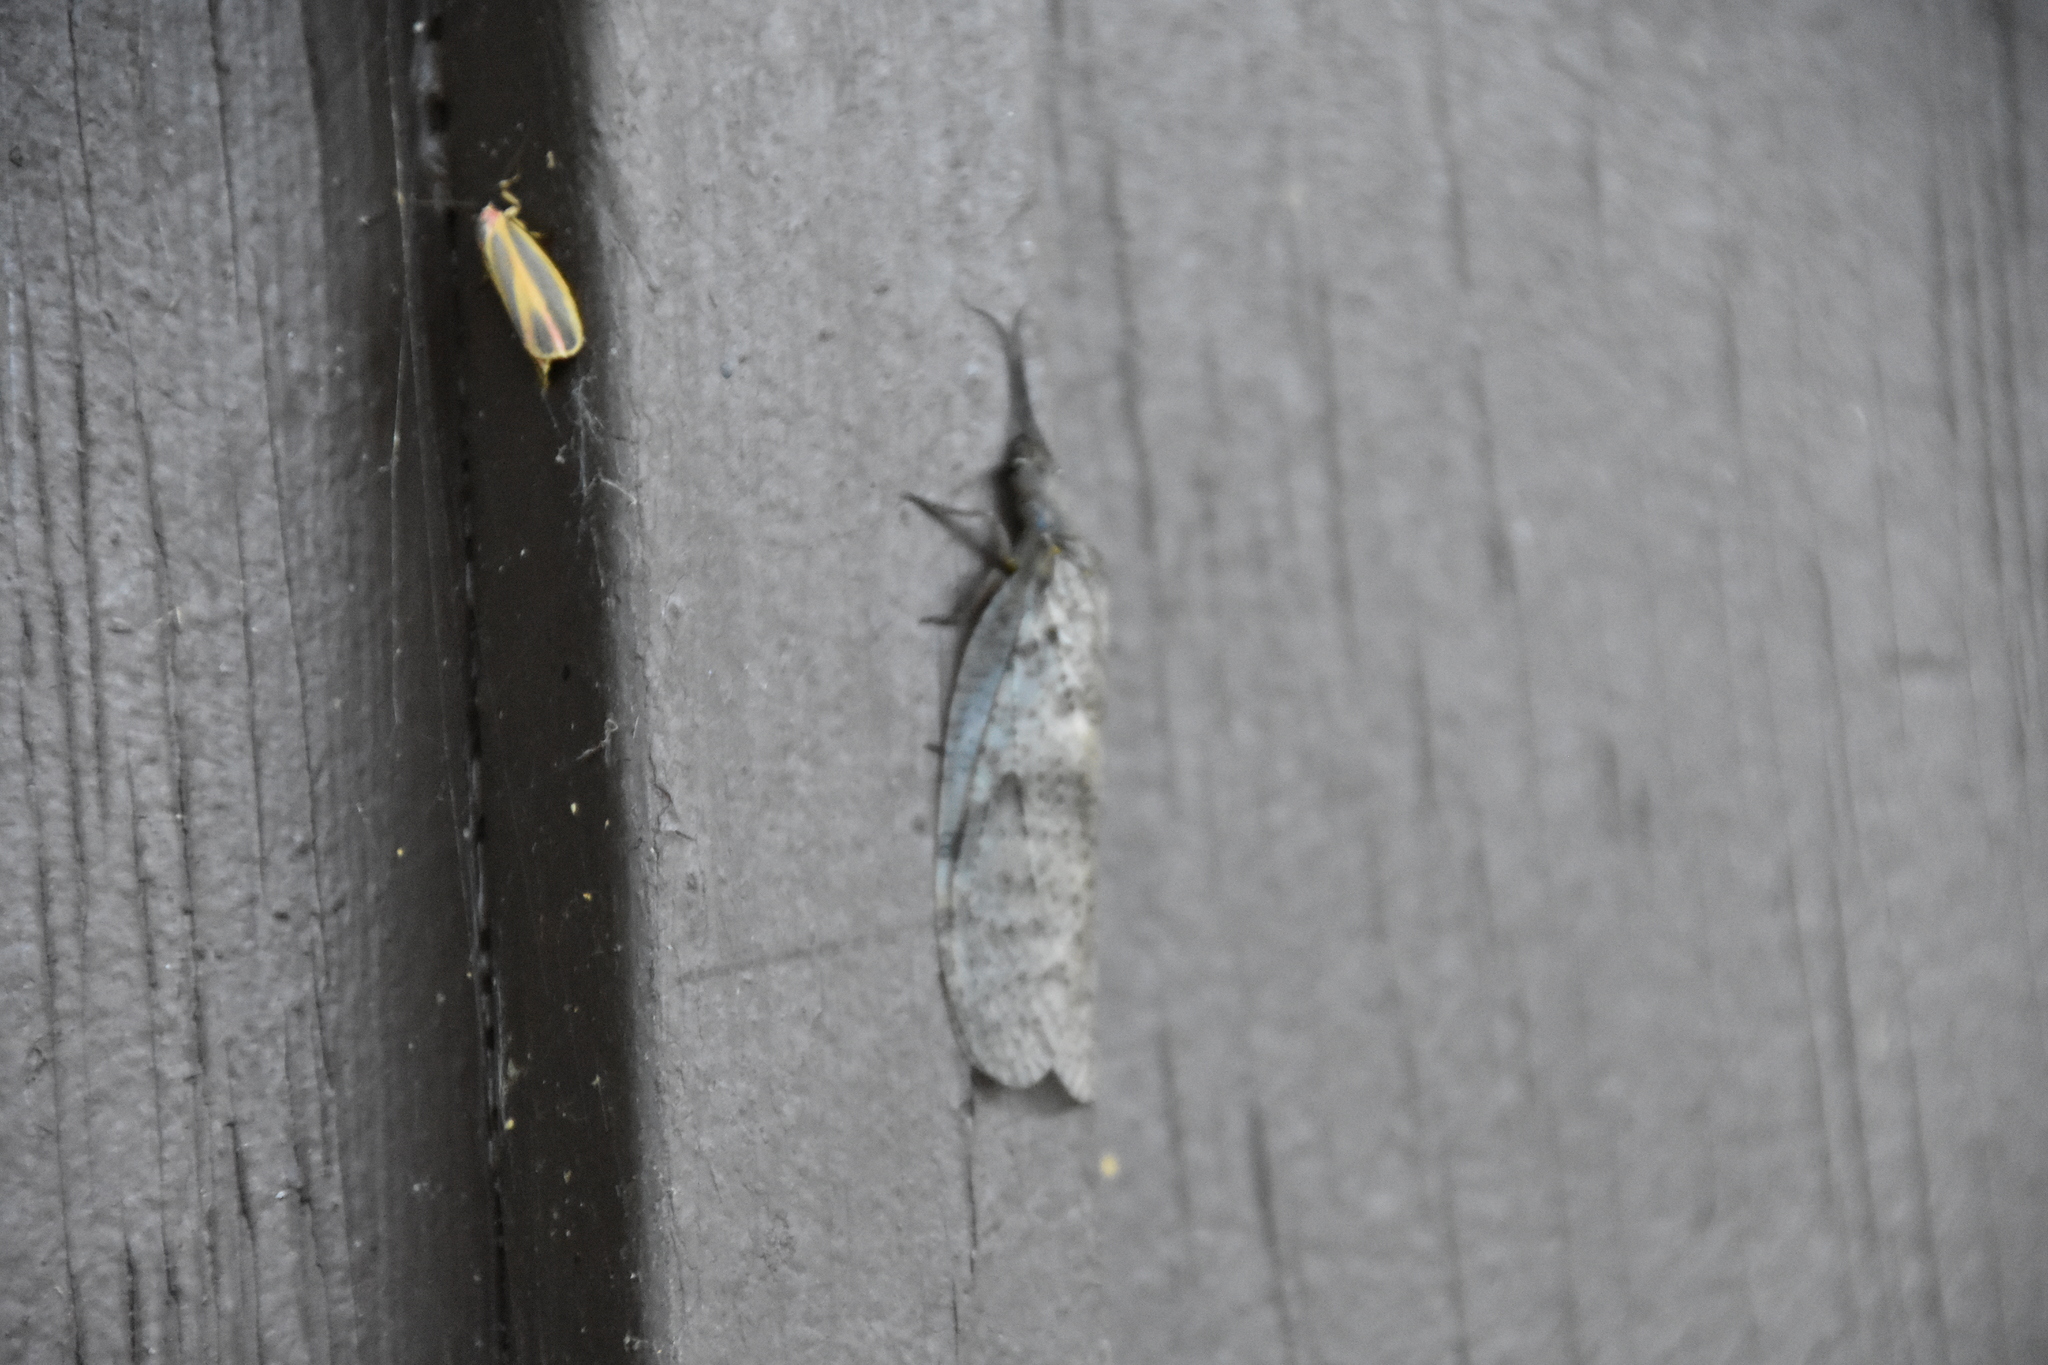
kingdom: Animalia
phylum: Arthropoda
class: Insecta
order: Megaloptera
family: Corydalidae
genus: Chauliodes
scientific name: Chauliodes pectinicornis
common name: Summer fishfly
